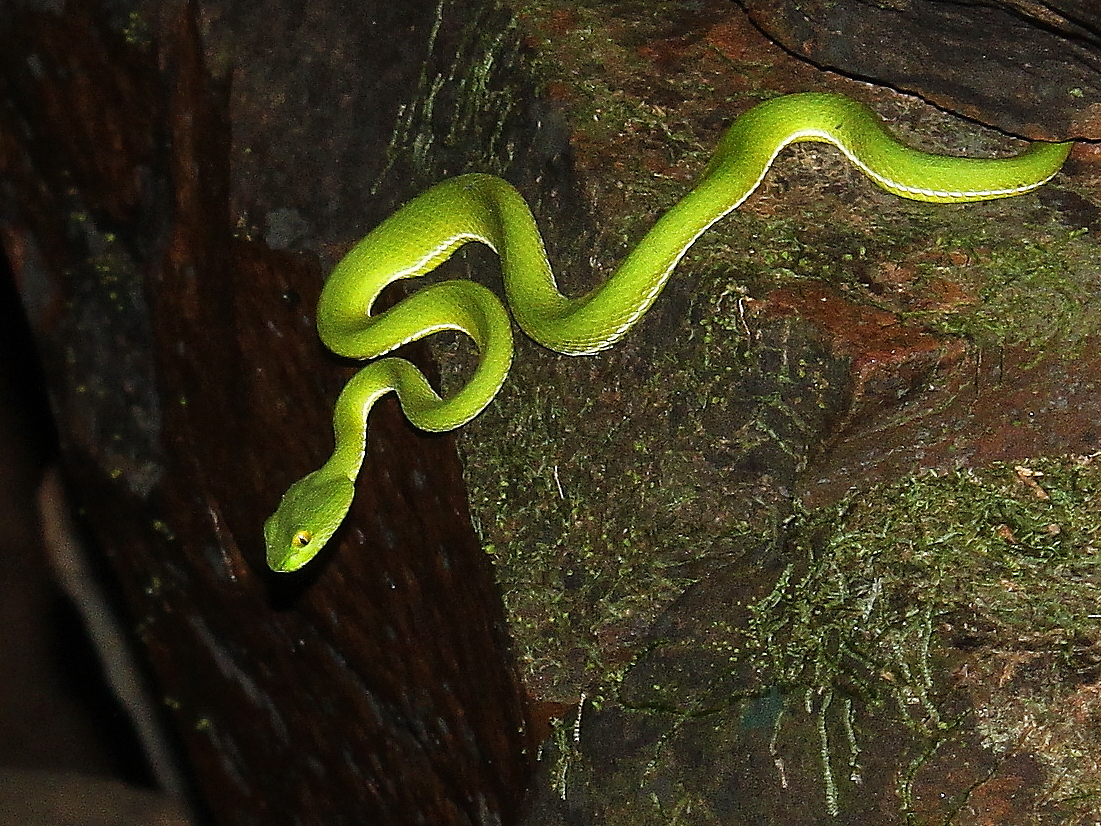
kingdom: Animalia
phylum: Chordata
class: Squamata
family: Viperidae
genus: Trimeresurus
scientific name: Trimeresurus cardamomensis
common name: Cardamom mountains green pitviper
